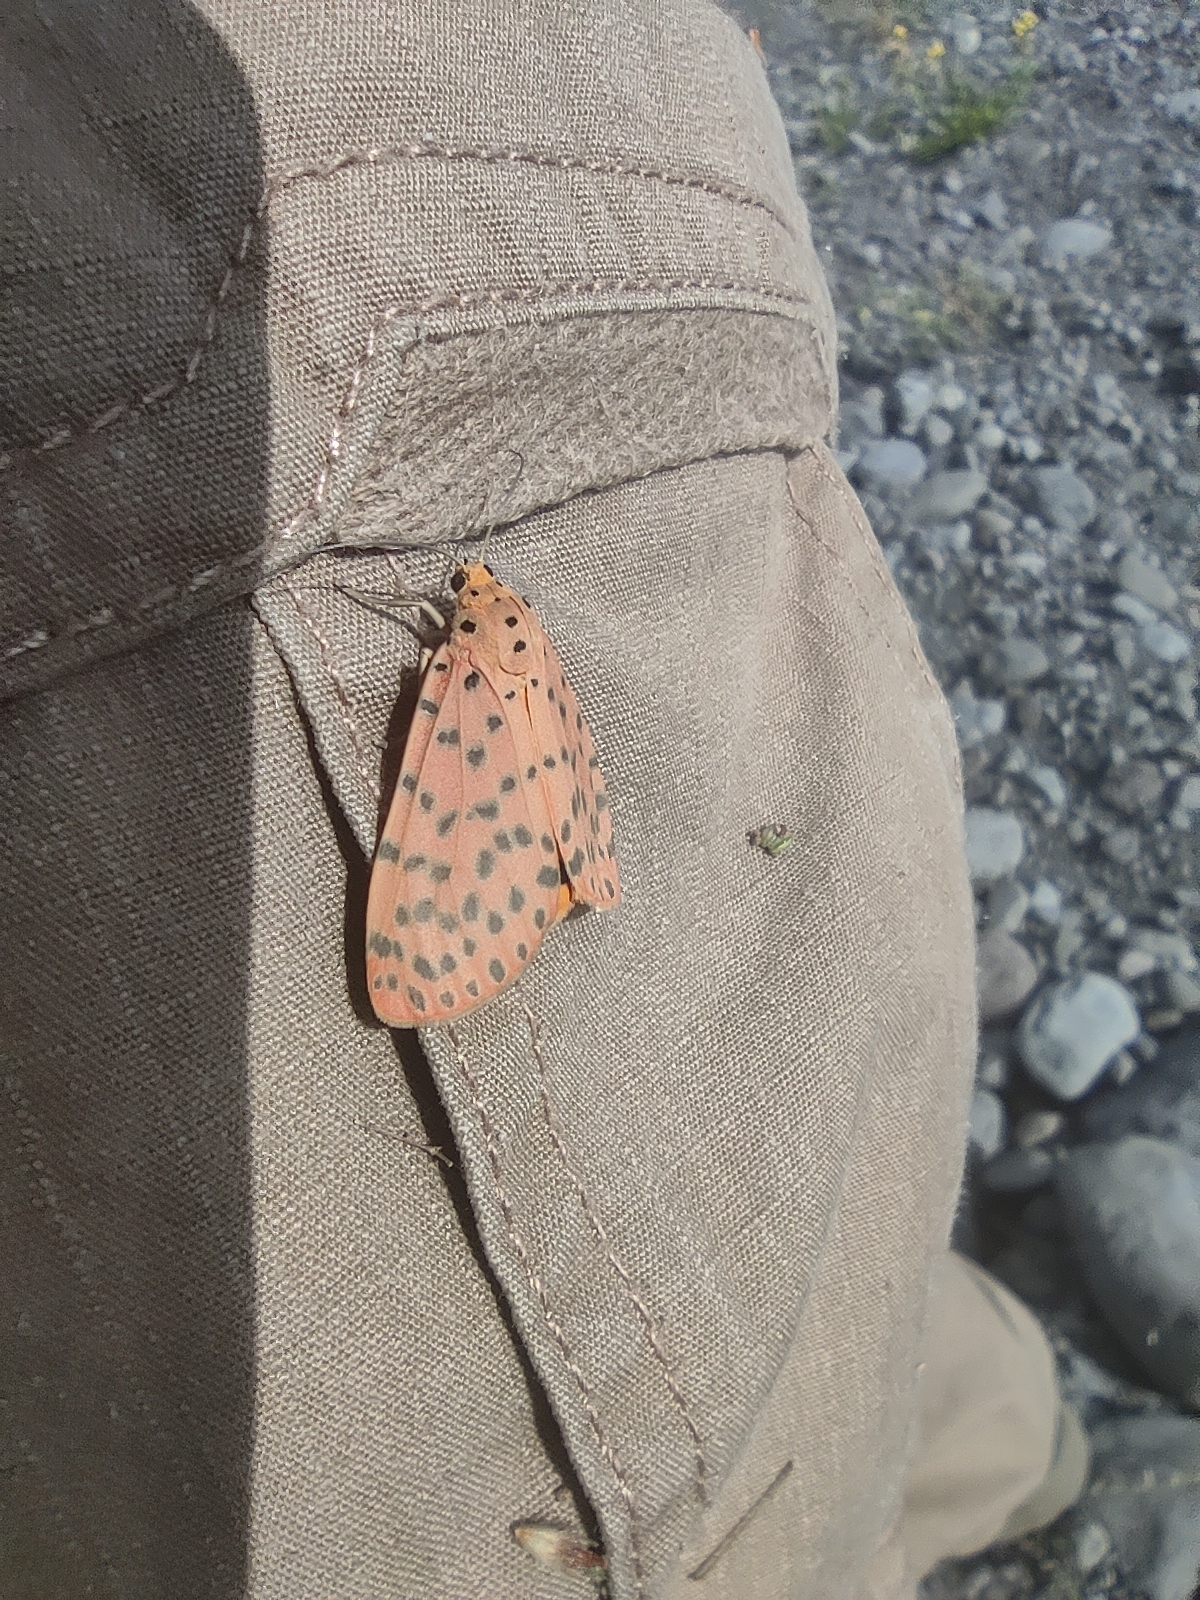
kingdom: Animalia
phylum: Arthropoda
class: Insecta
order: Lepidoptera
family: Erebidae
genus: Argina
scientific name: Argina astrea
